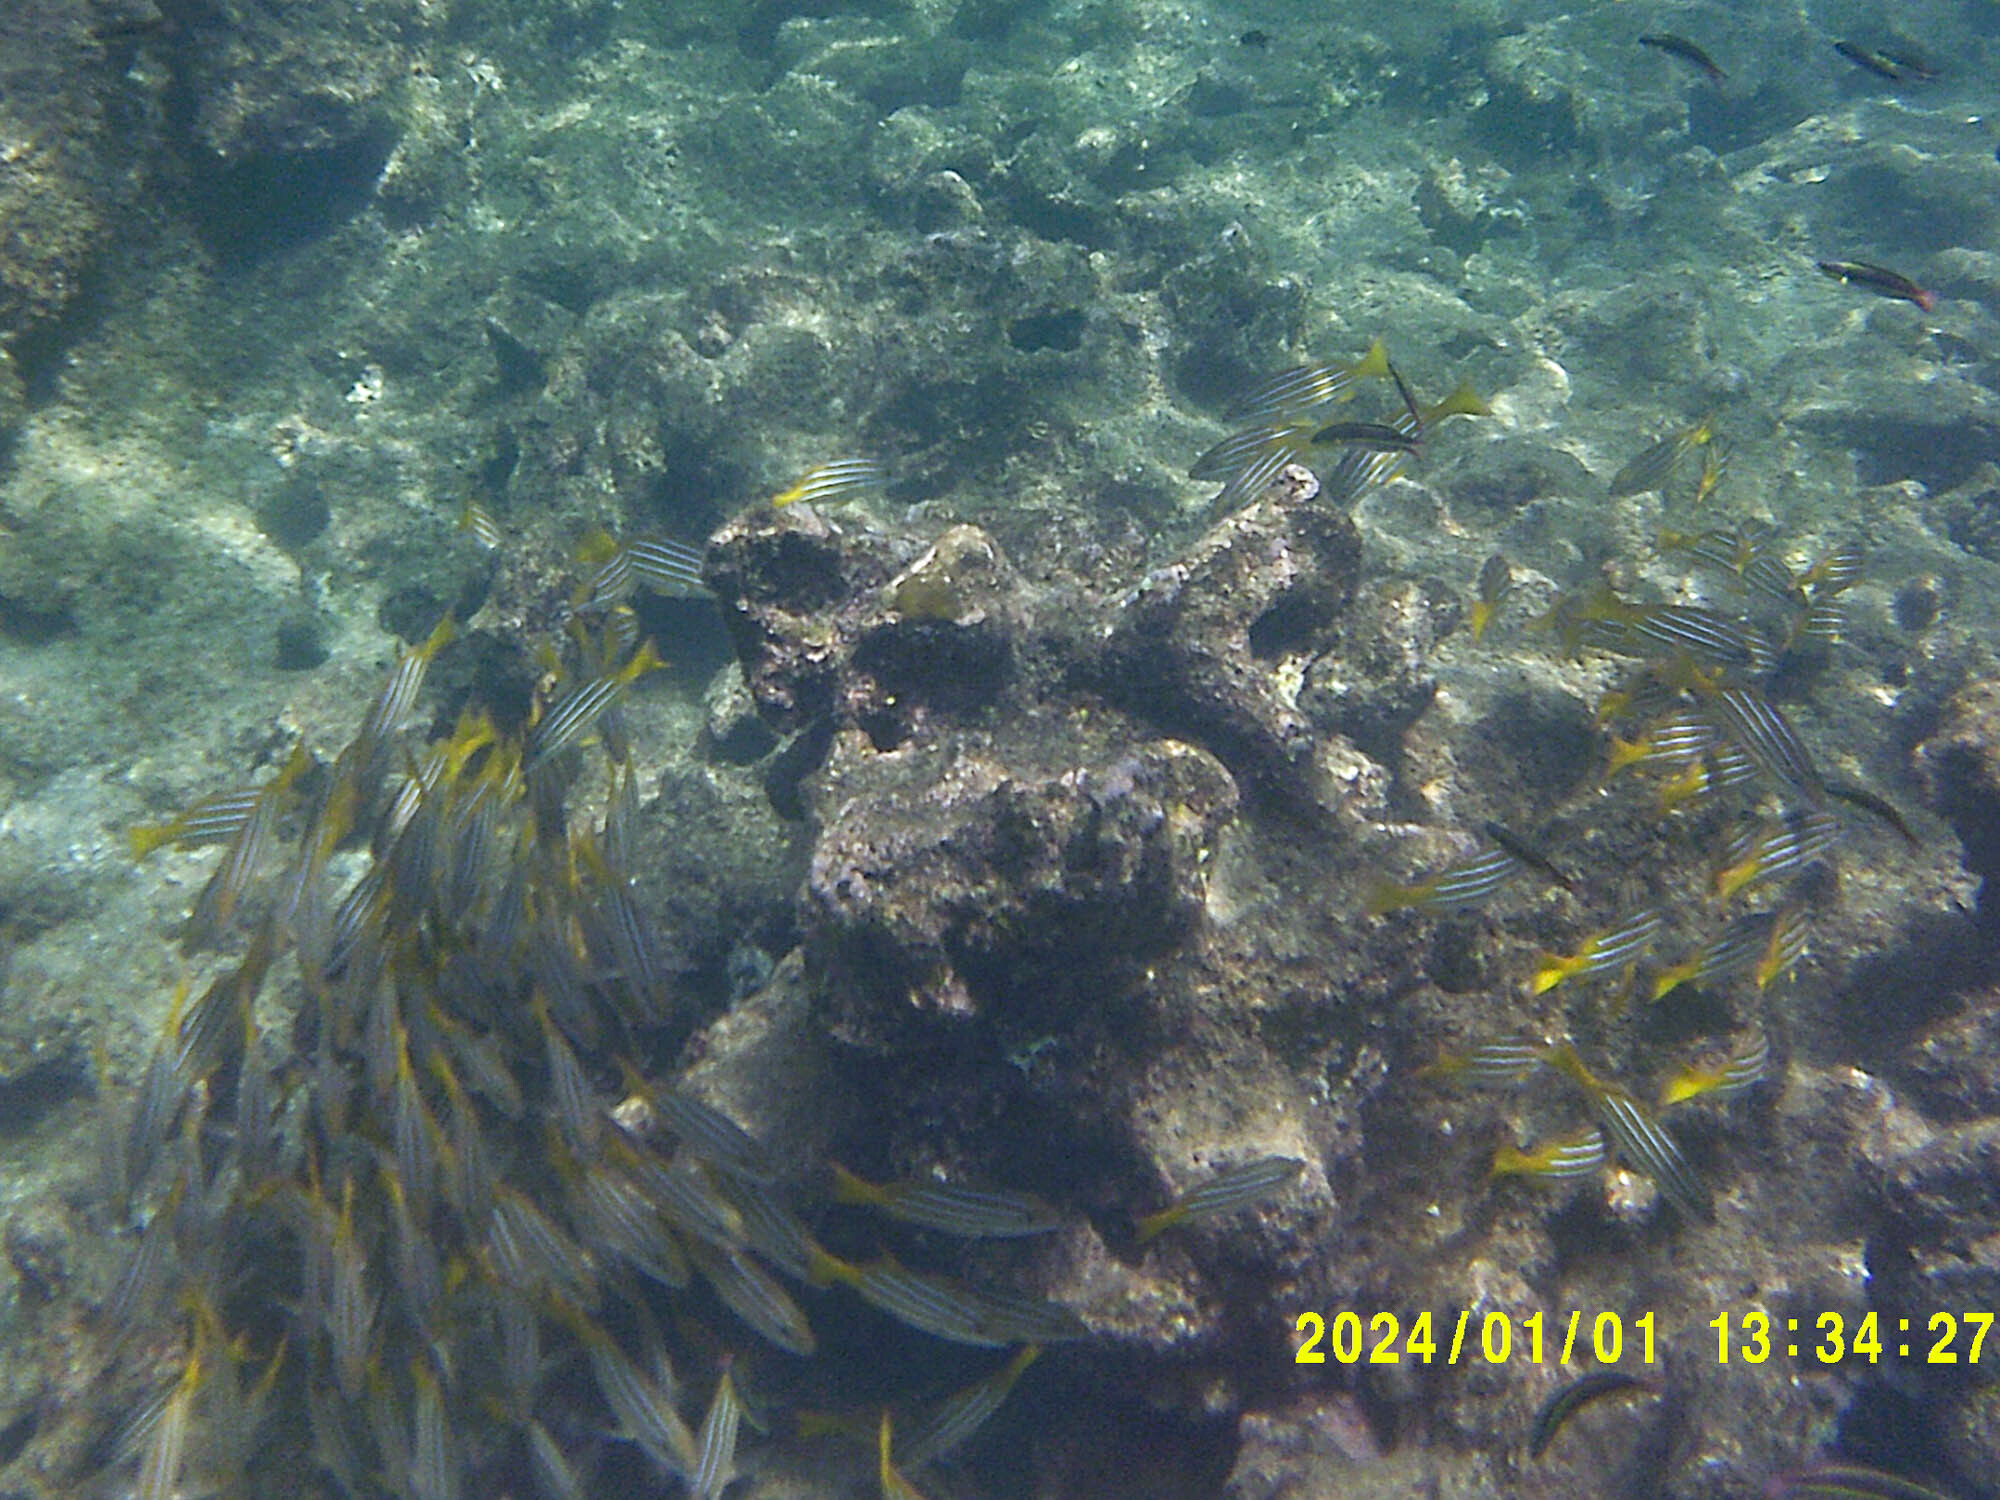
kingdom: Animalia
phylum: Chordata
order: Perciformes
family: Lutjanidae
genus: Lutjanus
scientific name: Lutjanus viridis
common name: Blue and gold snapper
